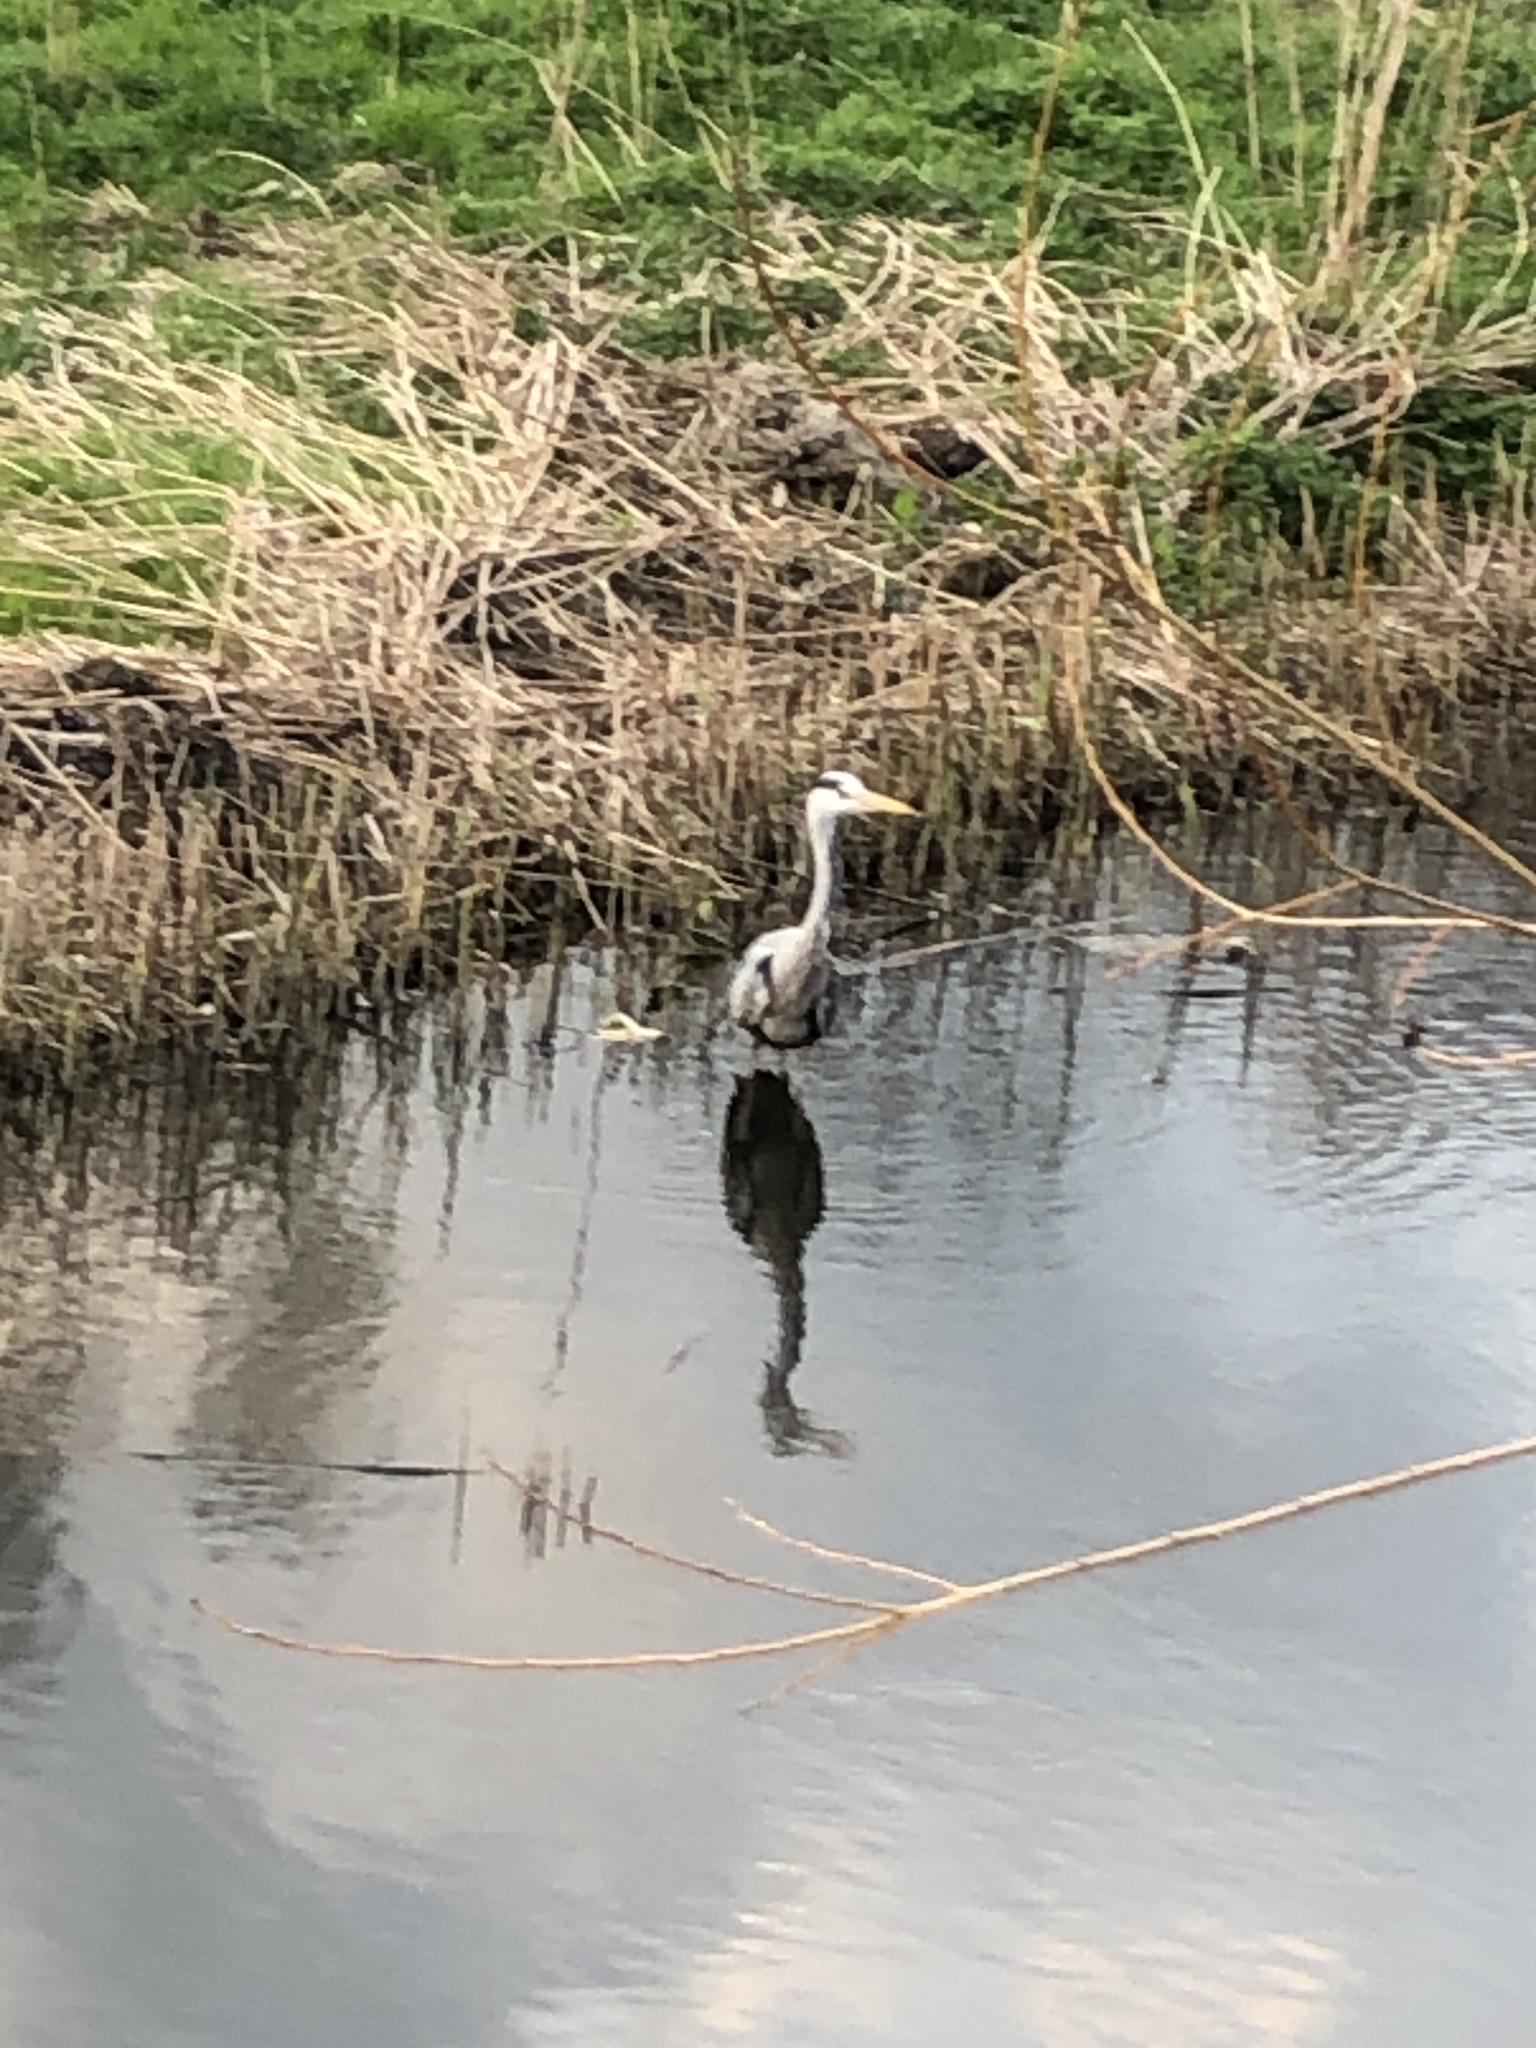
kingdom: Animalia
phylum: Chordata
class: Aves
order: Pelecaniformes
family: Ardeidae
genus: Ardea
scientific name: Ardea cinerea
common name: Grey heron
